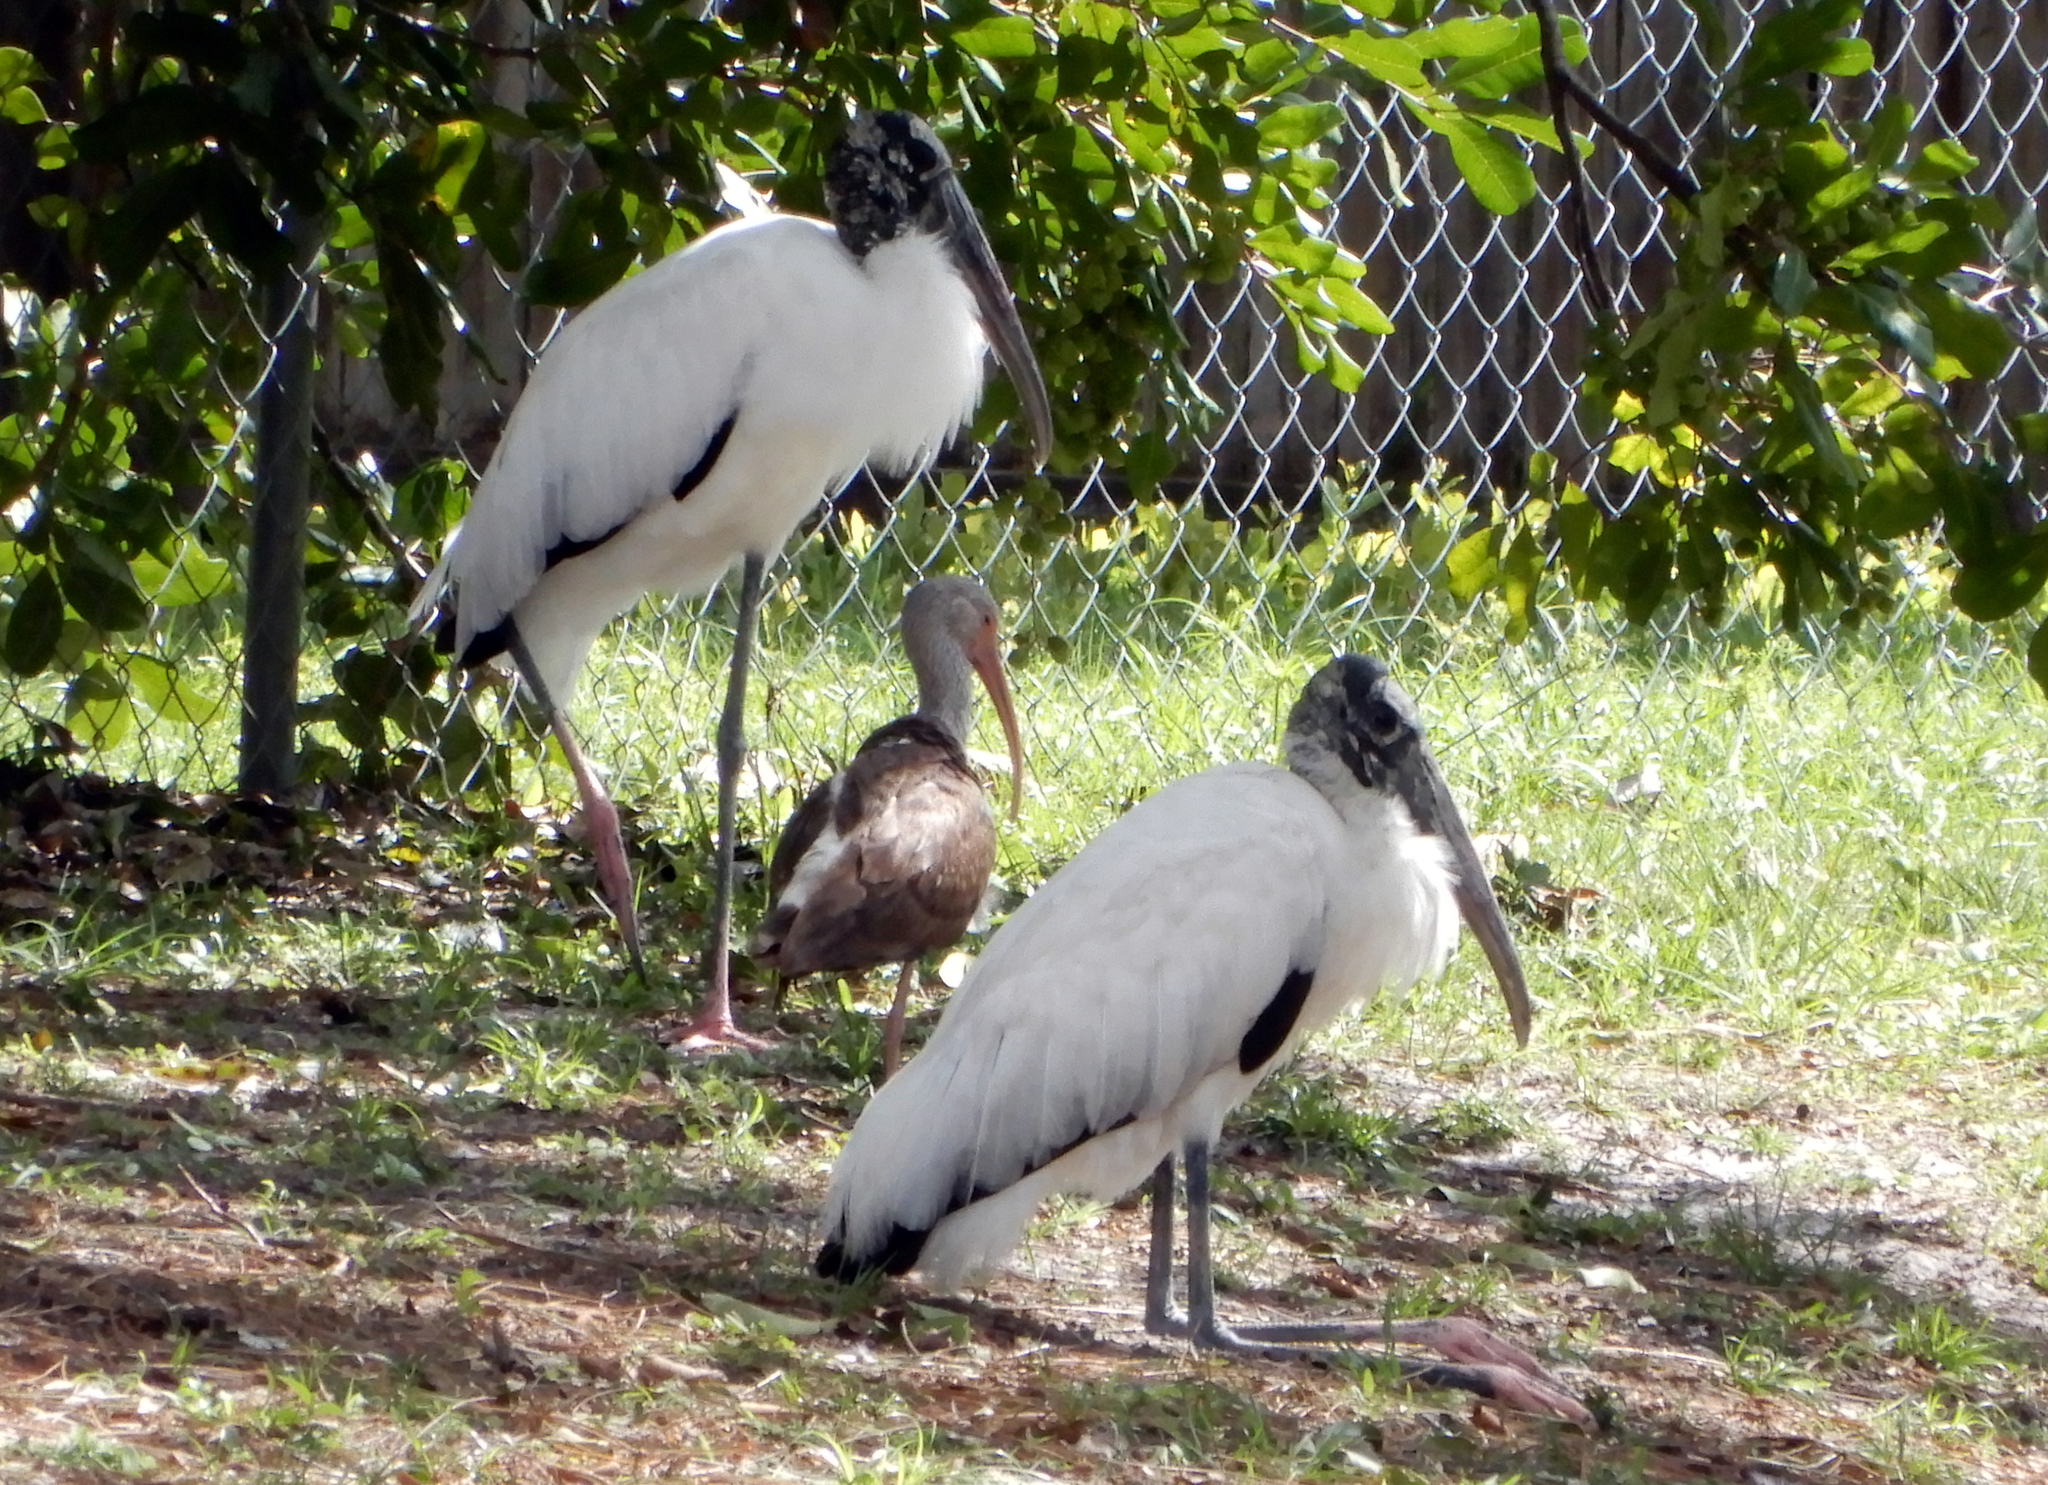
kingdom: Animalia
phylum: Chordata
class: Aves
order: Ciconiiformes
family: Ciconiidae
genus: Mycteria
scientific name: Mycteria americana
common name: Wood stork
